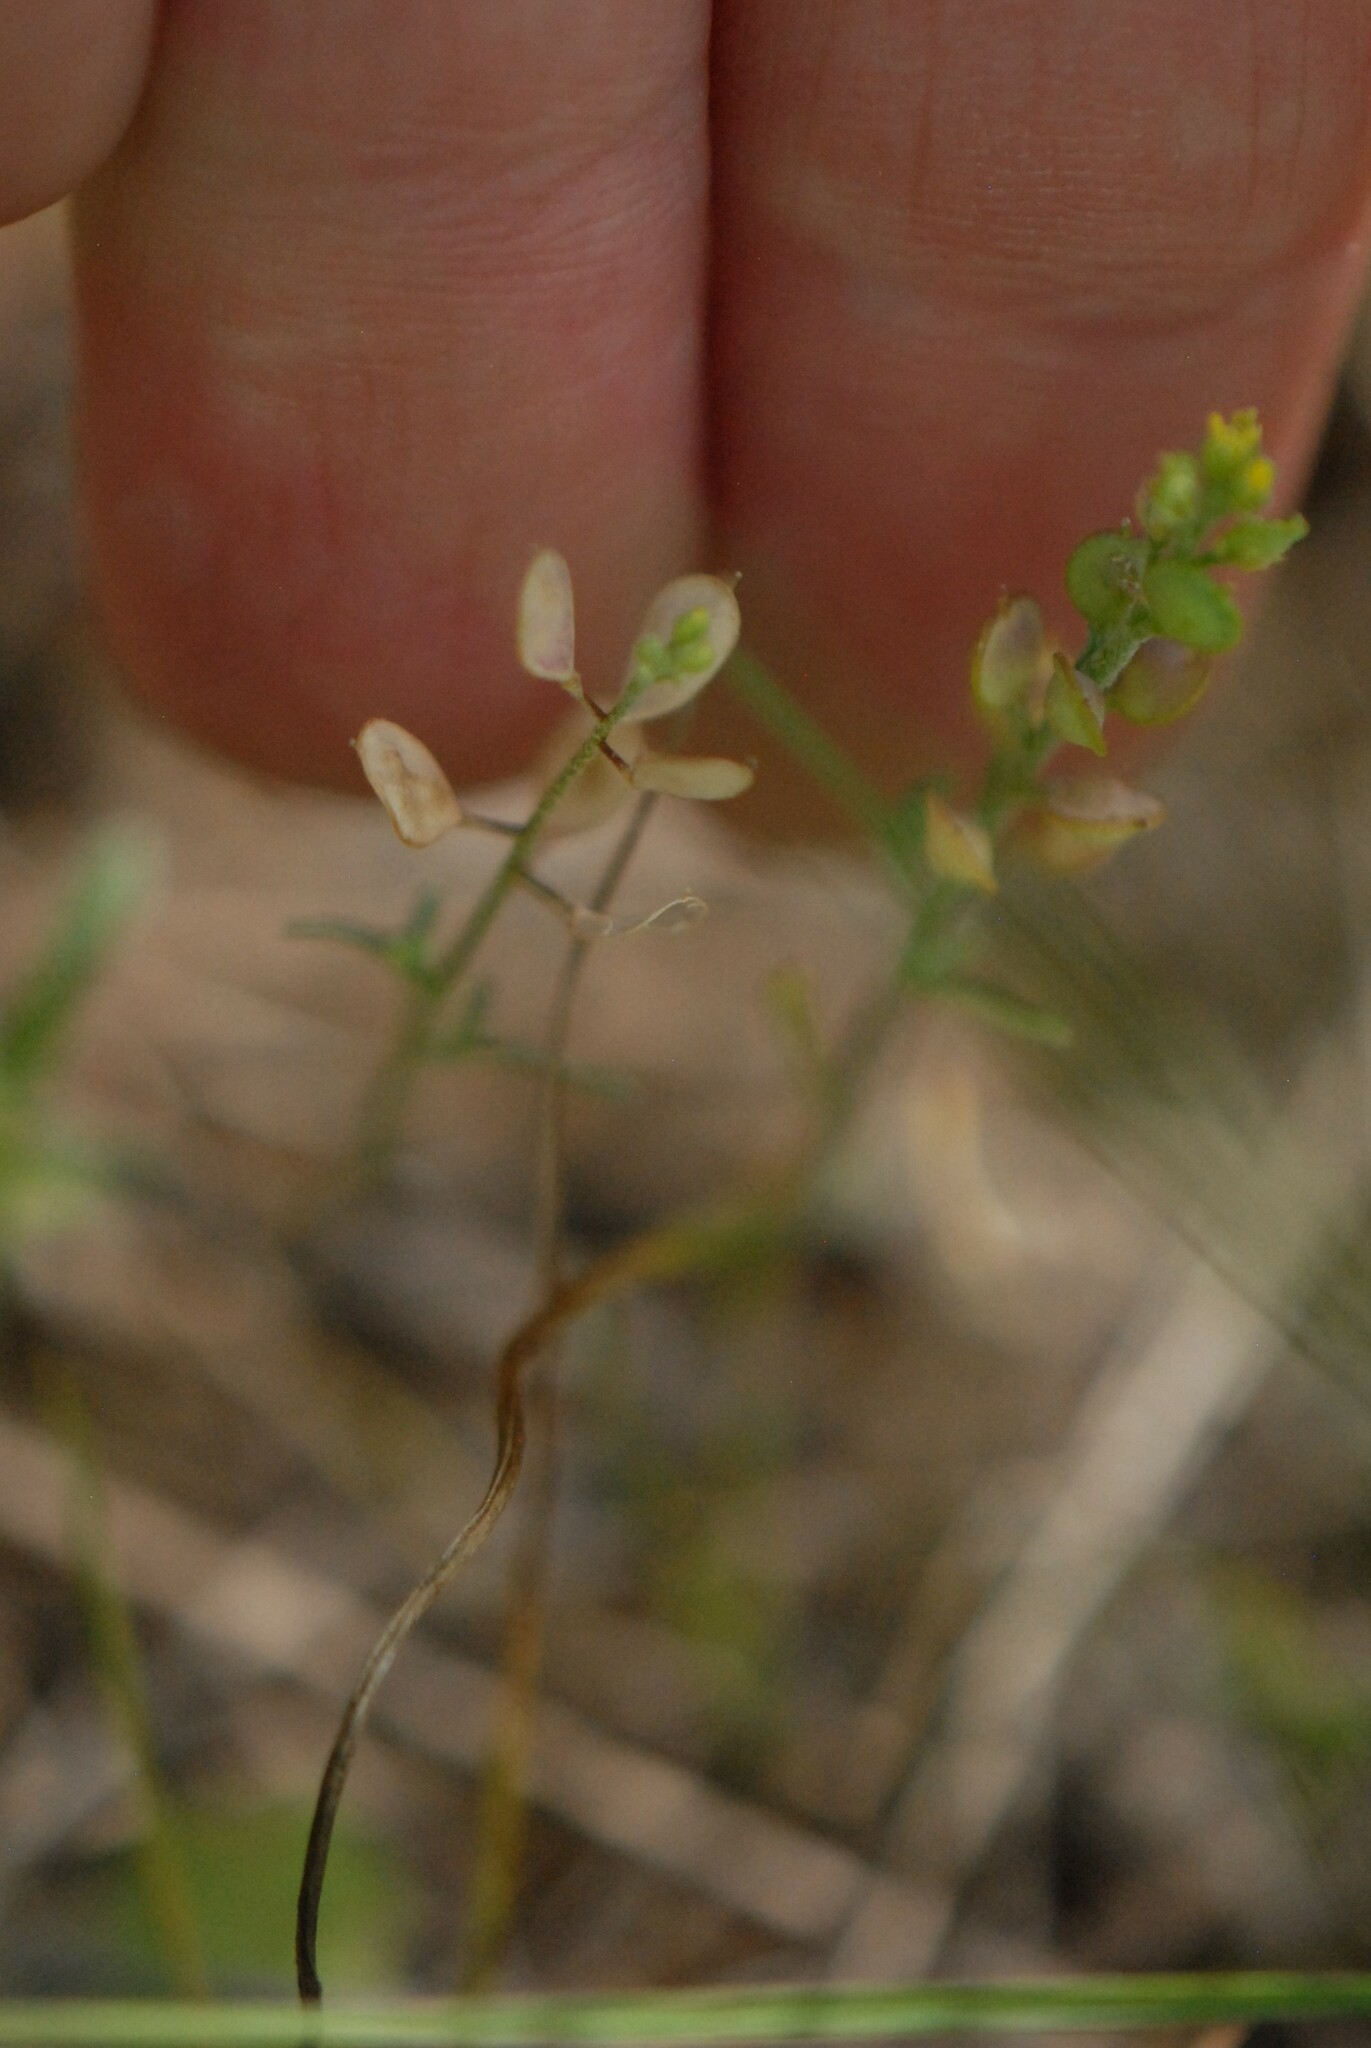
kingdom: Plantae
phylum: Tracheophyta
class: Magnoliopsida
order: Brassicales
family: Brassicaceae
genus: Alyssum
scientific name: Alyssum turkestanicum
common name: Desert alyssum
